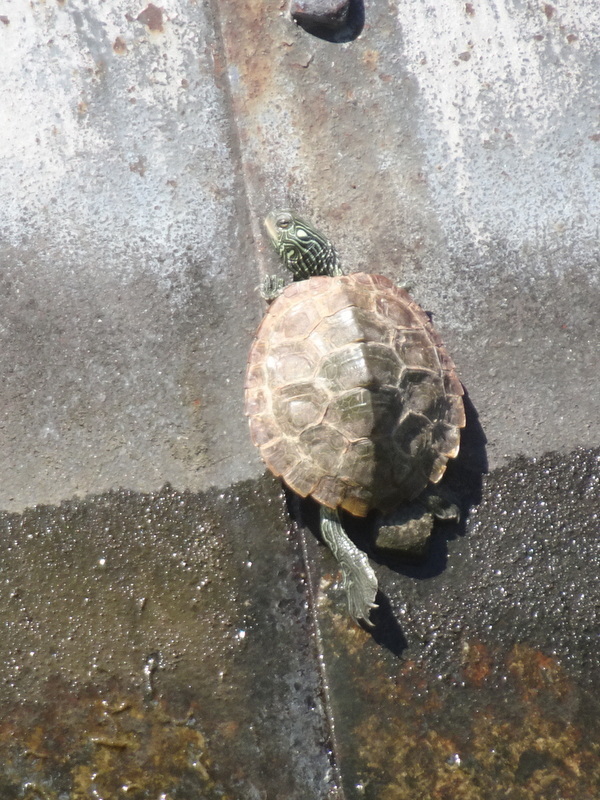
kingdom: Animalia
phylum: Chordata
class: Testudines
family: Emydidae
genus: Graptemys
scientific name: Graptemys geographica
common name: Common map turtle
